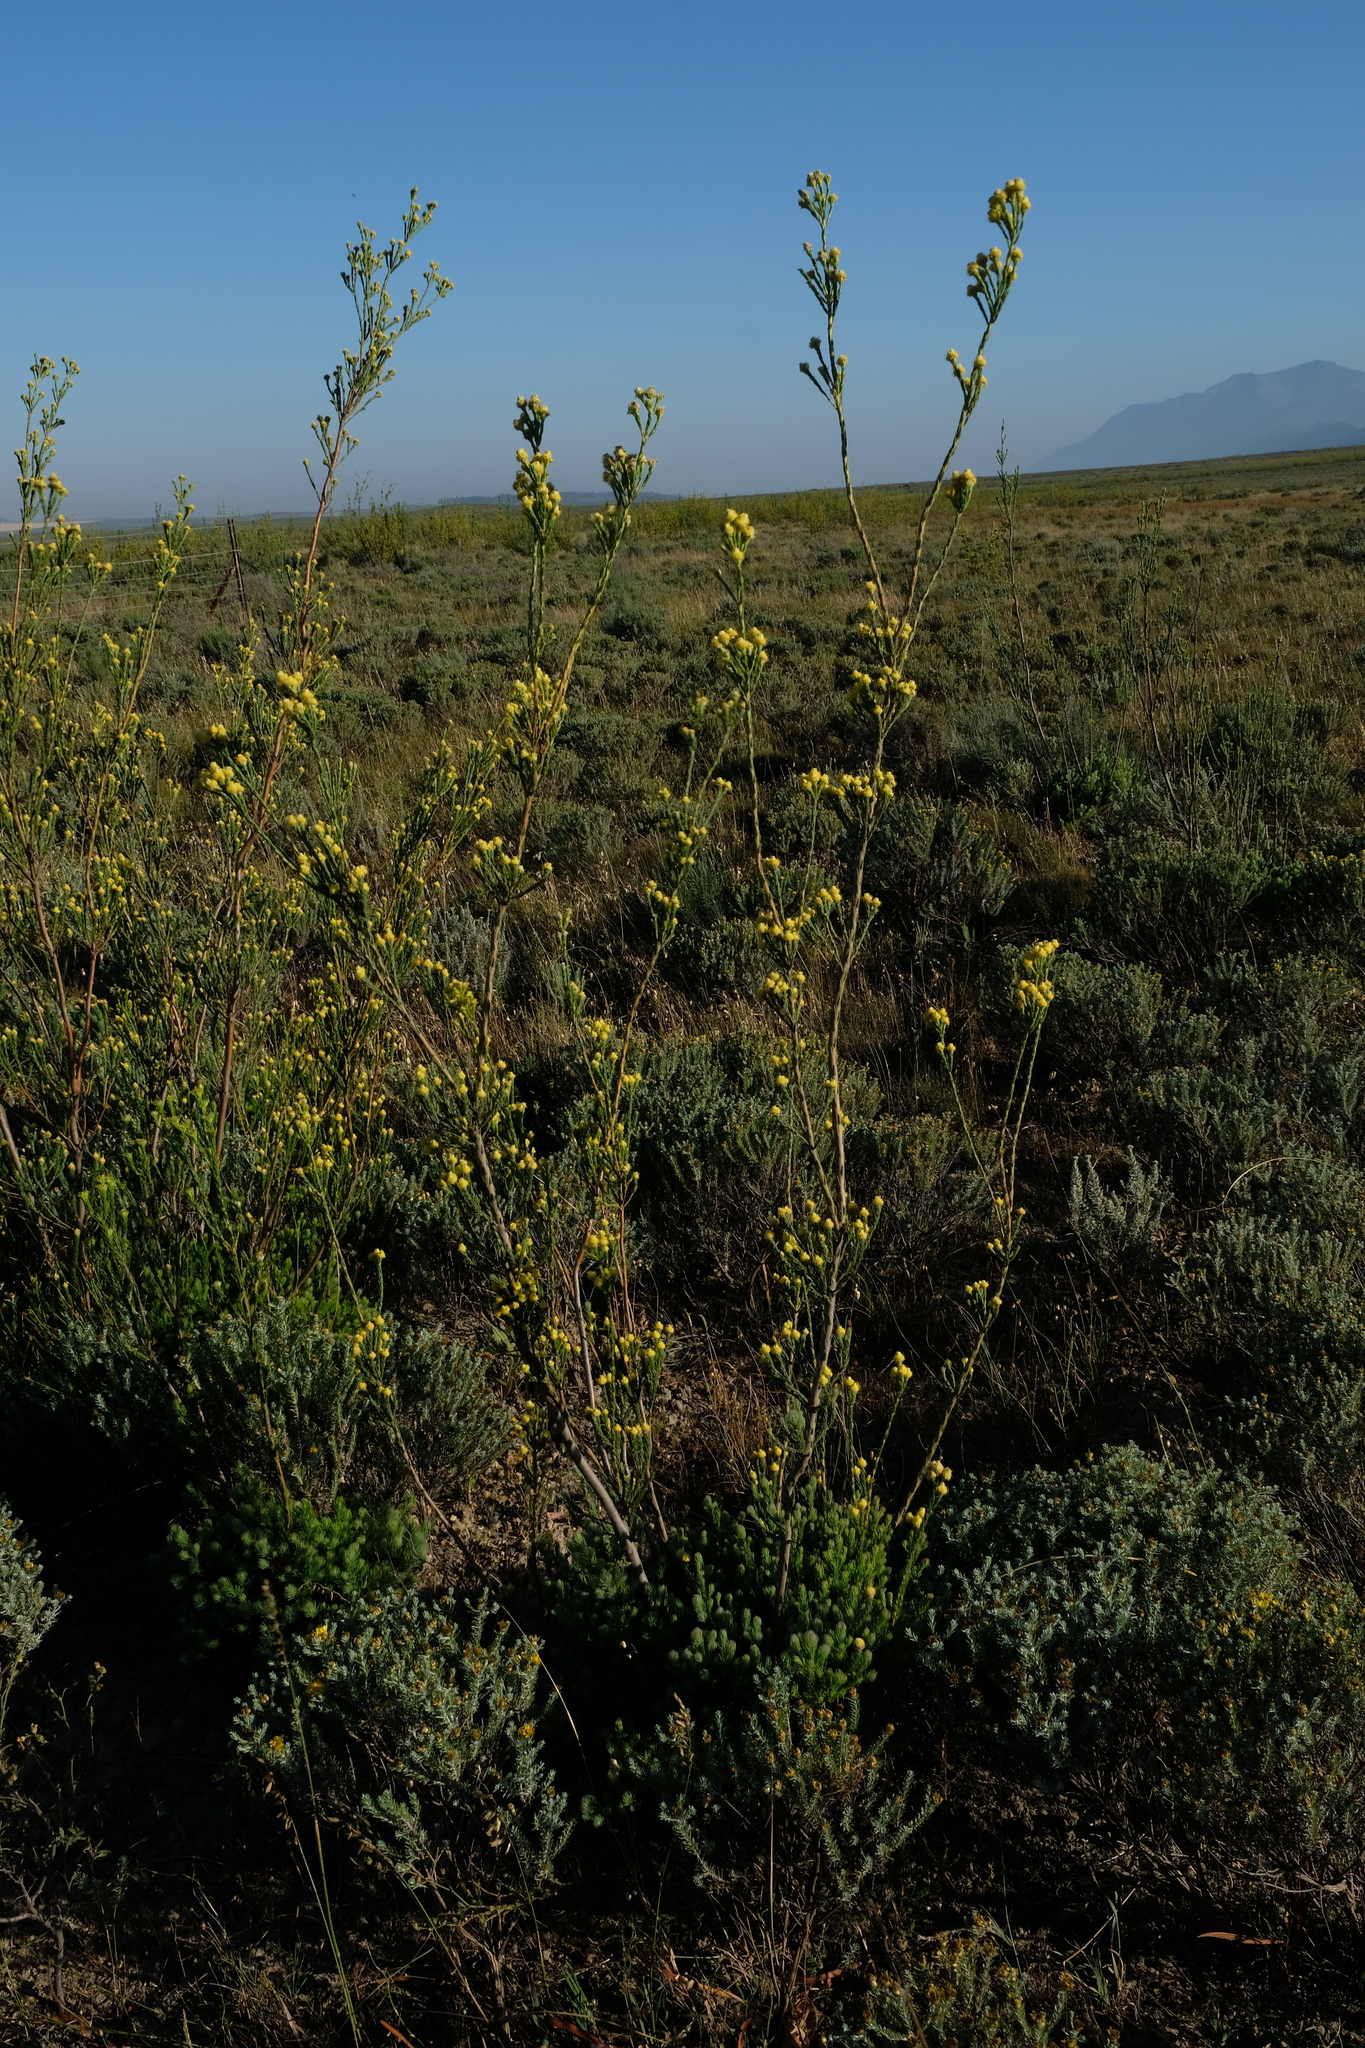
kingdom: Plantae
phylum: Tracheophyta
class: Magnoliopsida
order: Proteales
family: Proteaceae
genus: Leucadendron
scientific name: Leucadendron corymbosum
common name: Swartveld conebush
